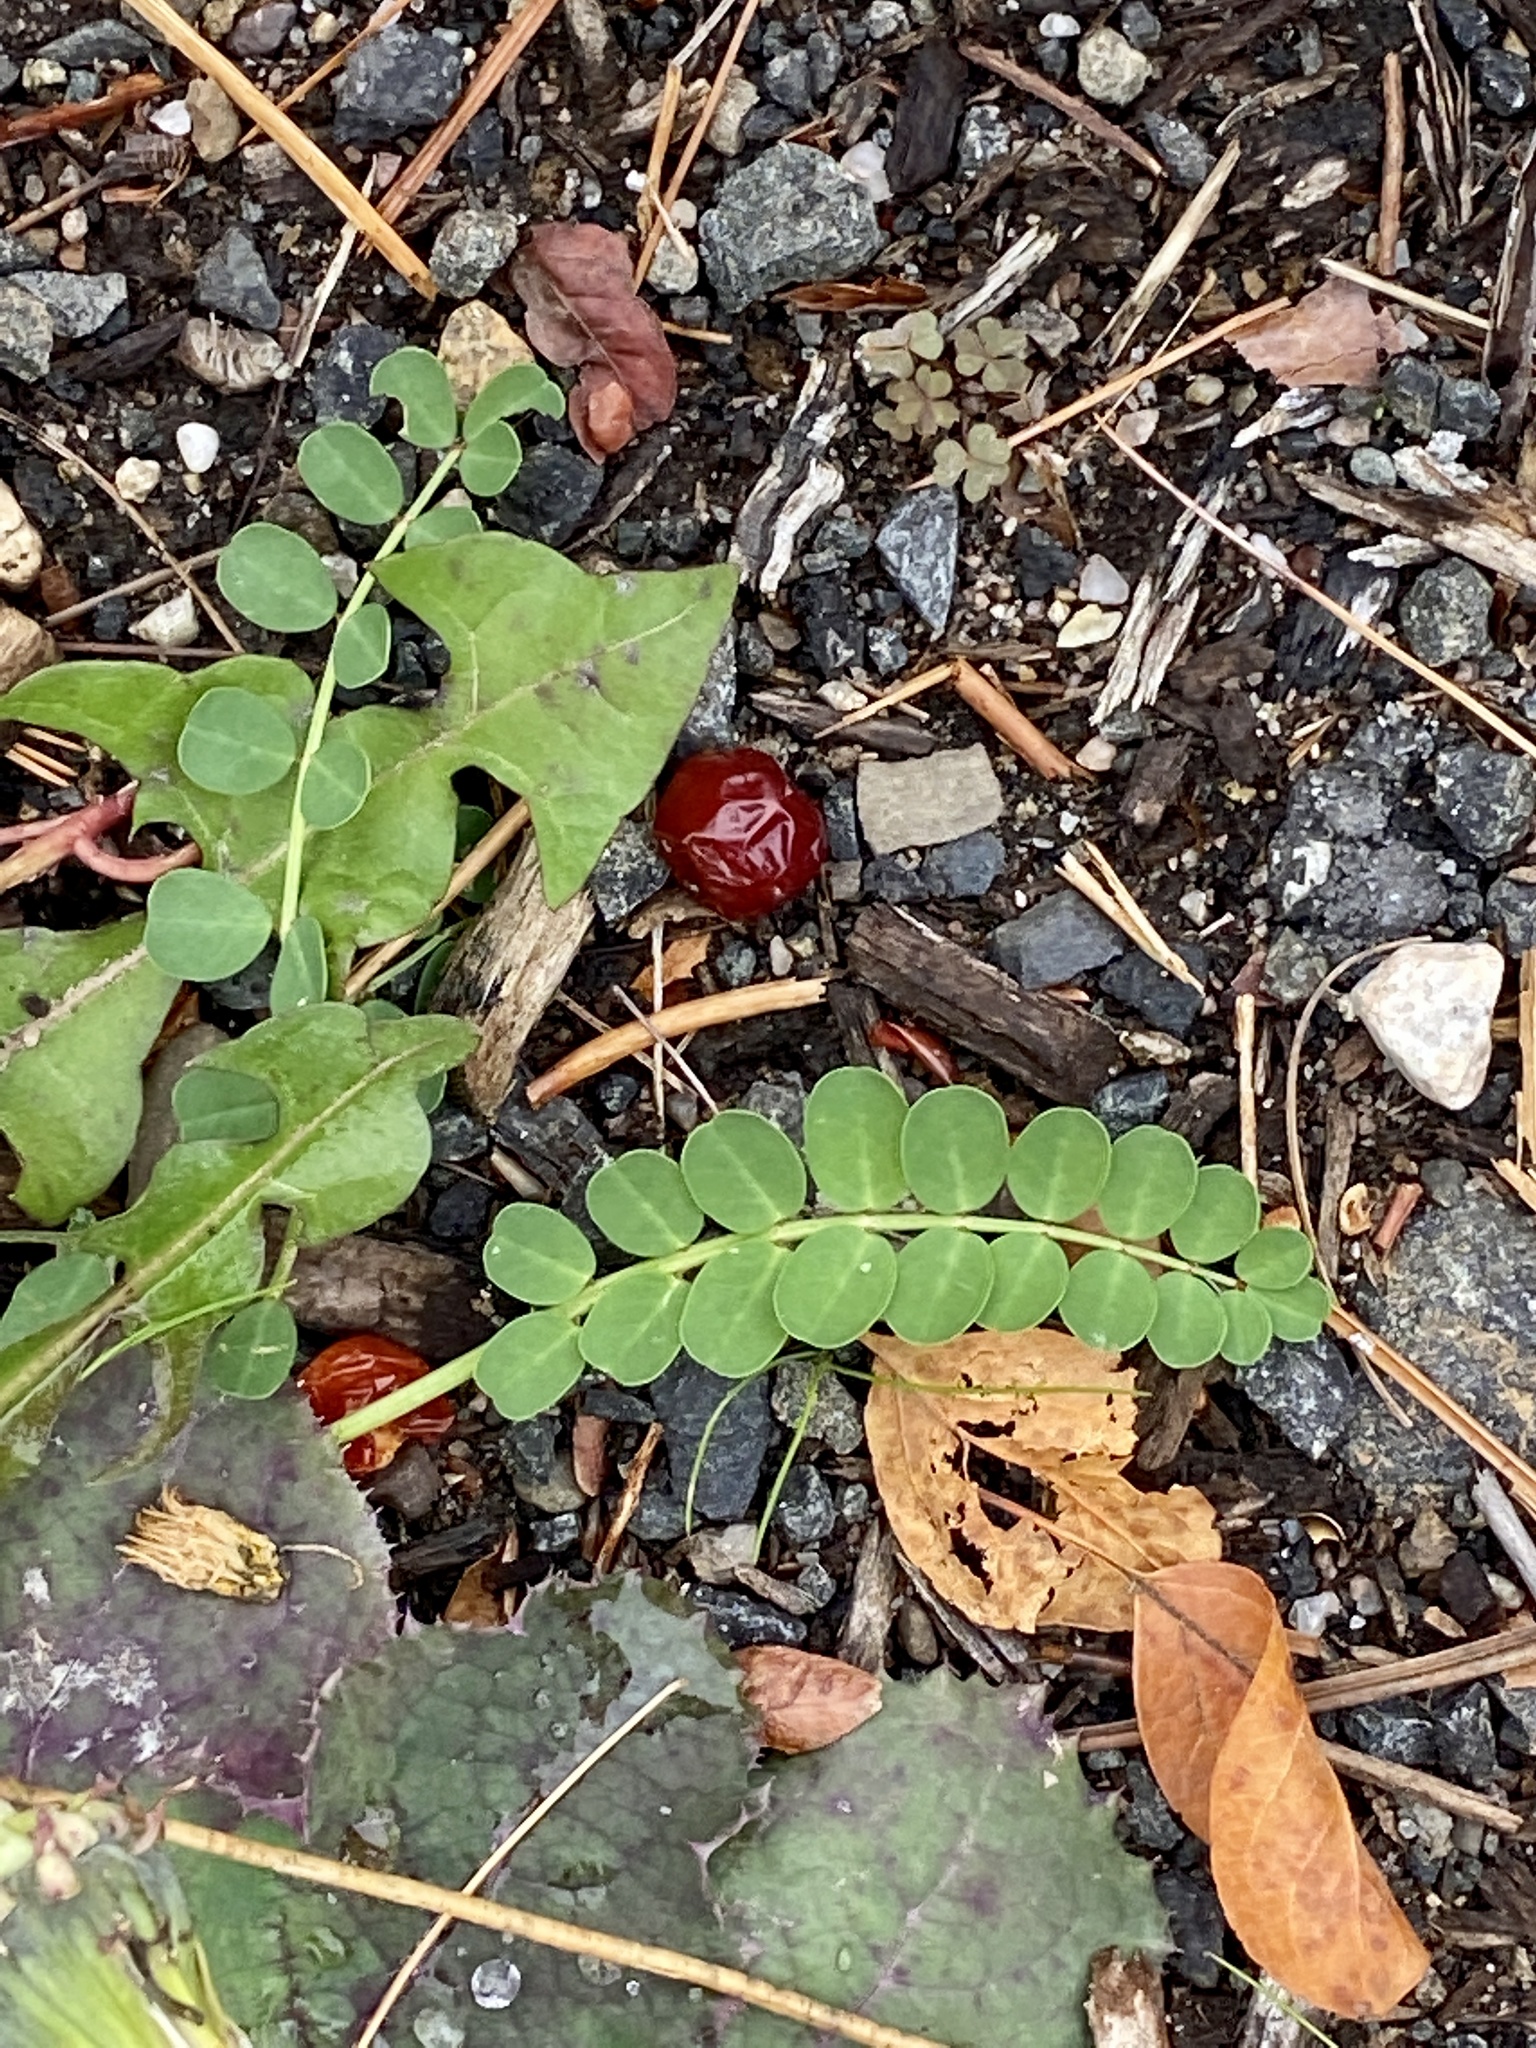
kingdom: Plantae
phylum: Tracheophyta
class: Magnoliopsida
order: Fabales
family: Fabaceae
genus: Coronilla
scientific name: Coronilla varia
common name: Crownvetch
